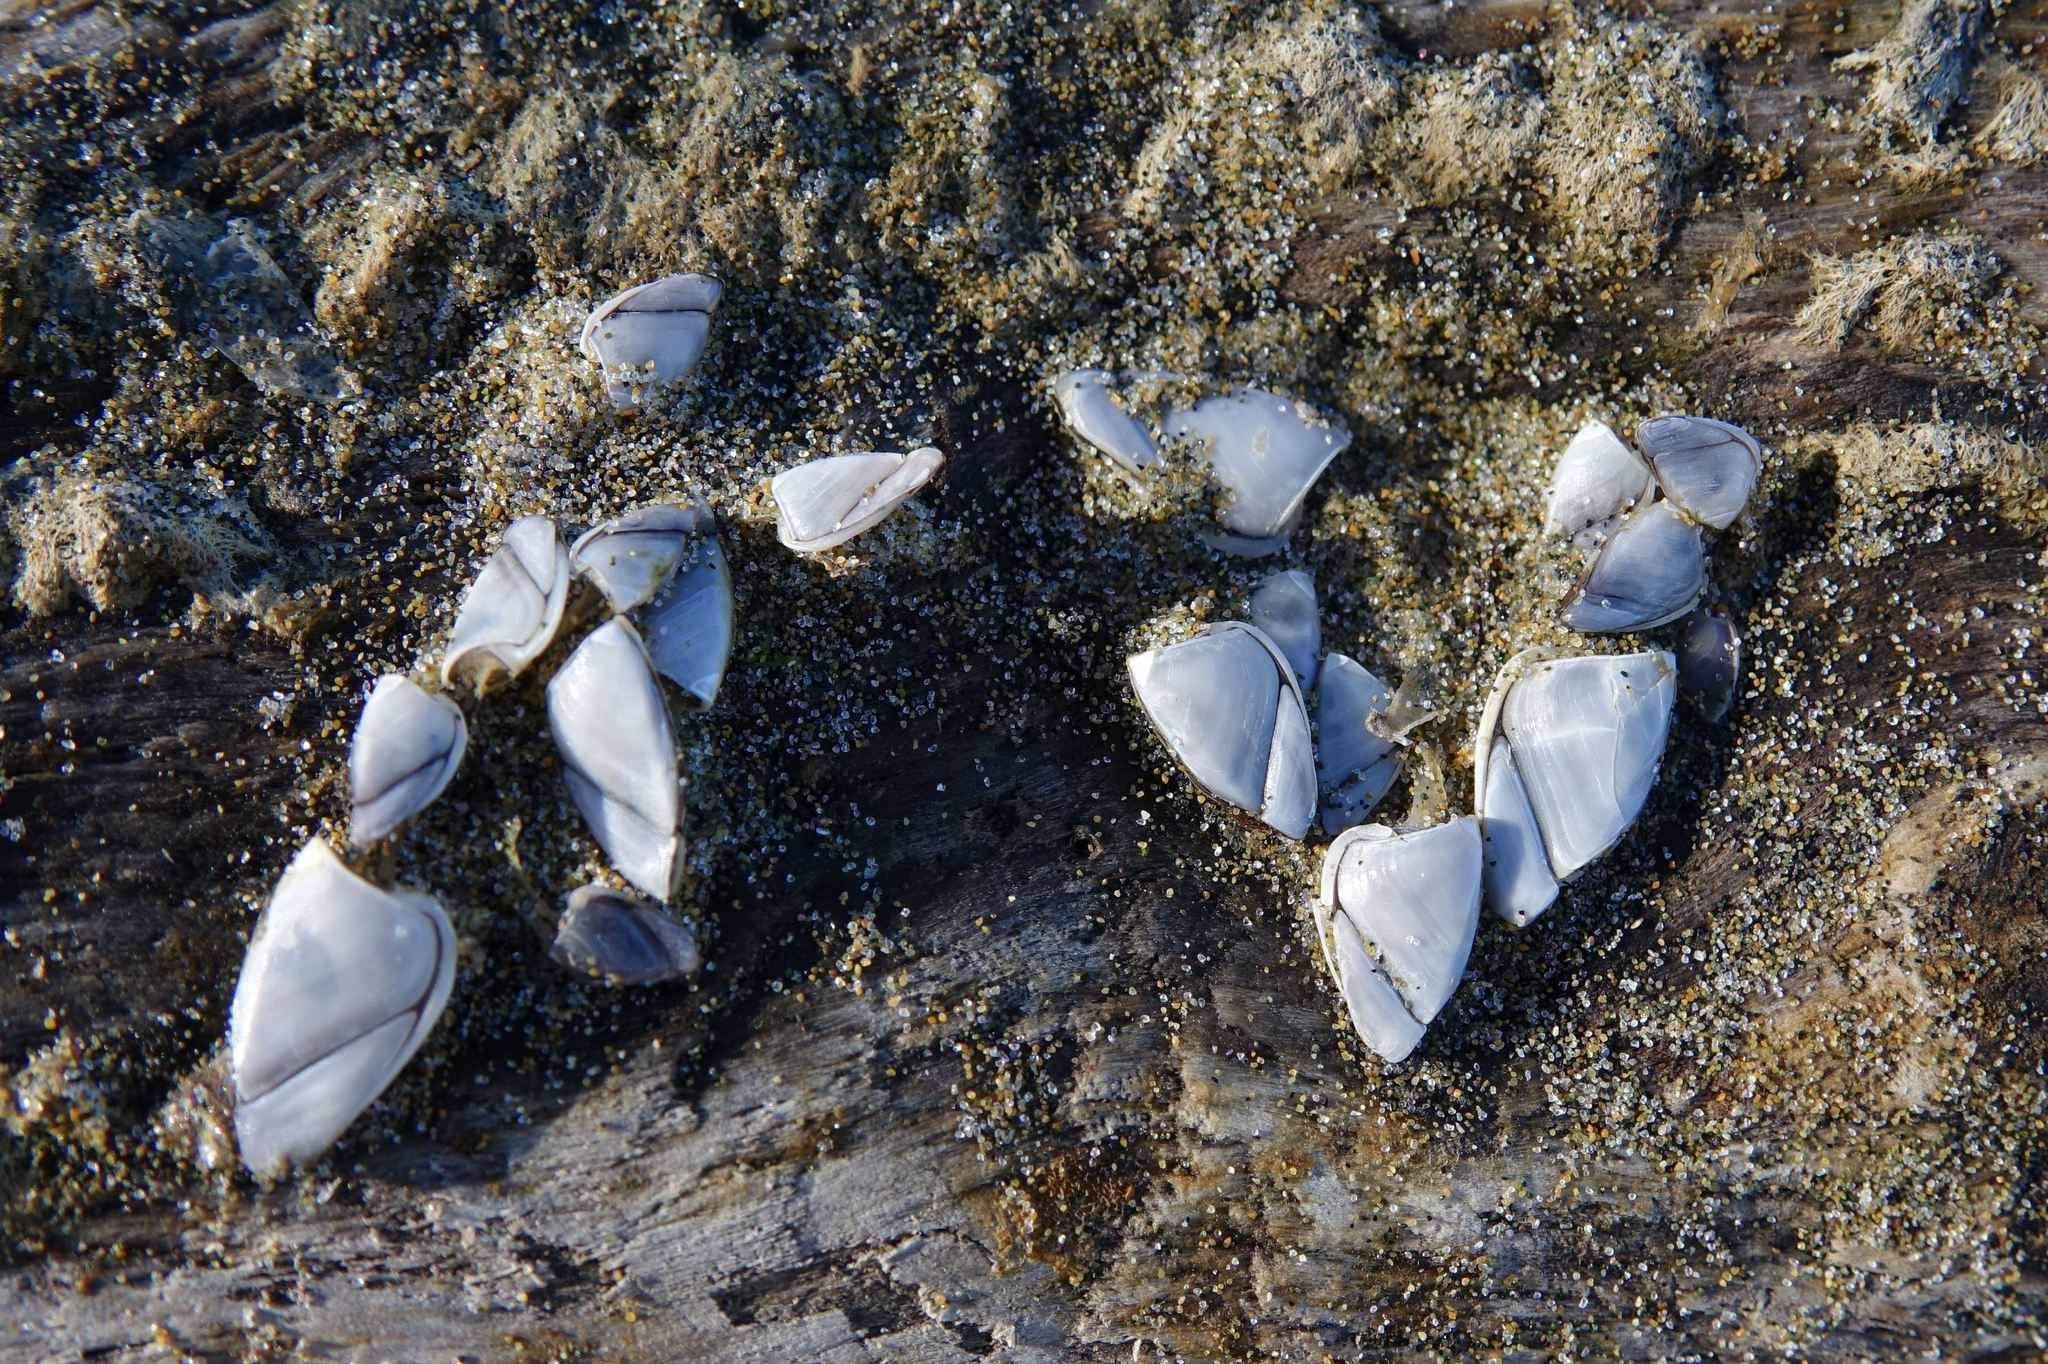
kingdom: Animalia
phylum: Arthropoda
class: Maxillopoda
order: Pedunculata
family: Lepadidae
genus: Lepas
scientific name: Lepas australis
